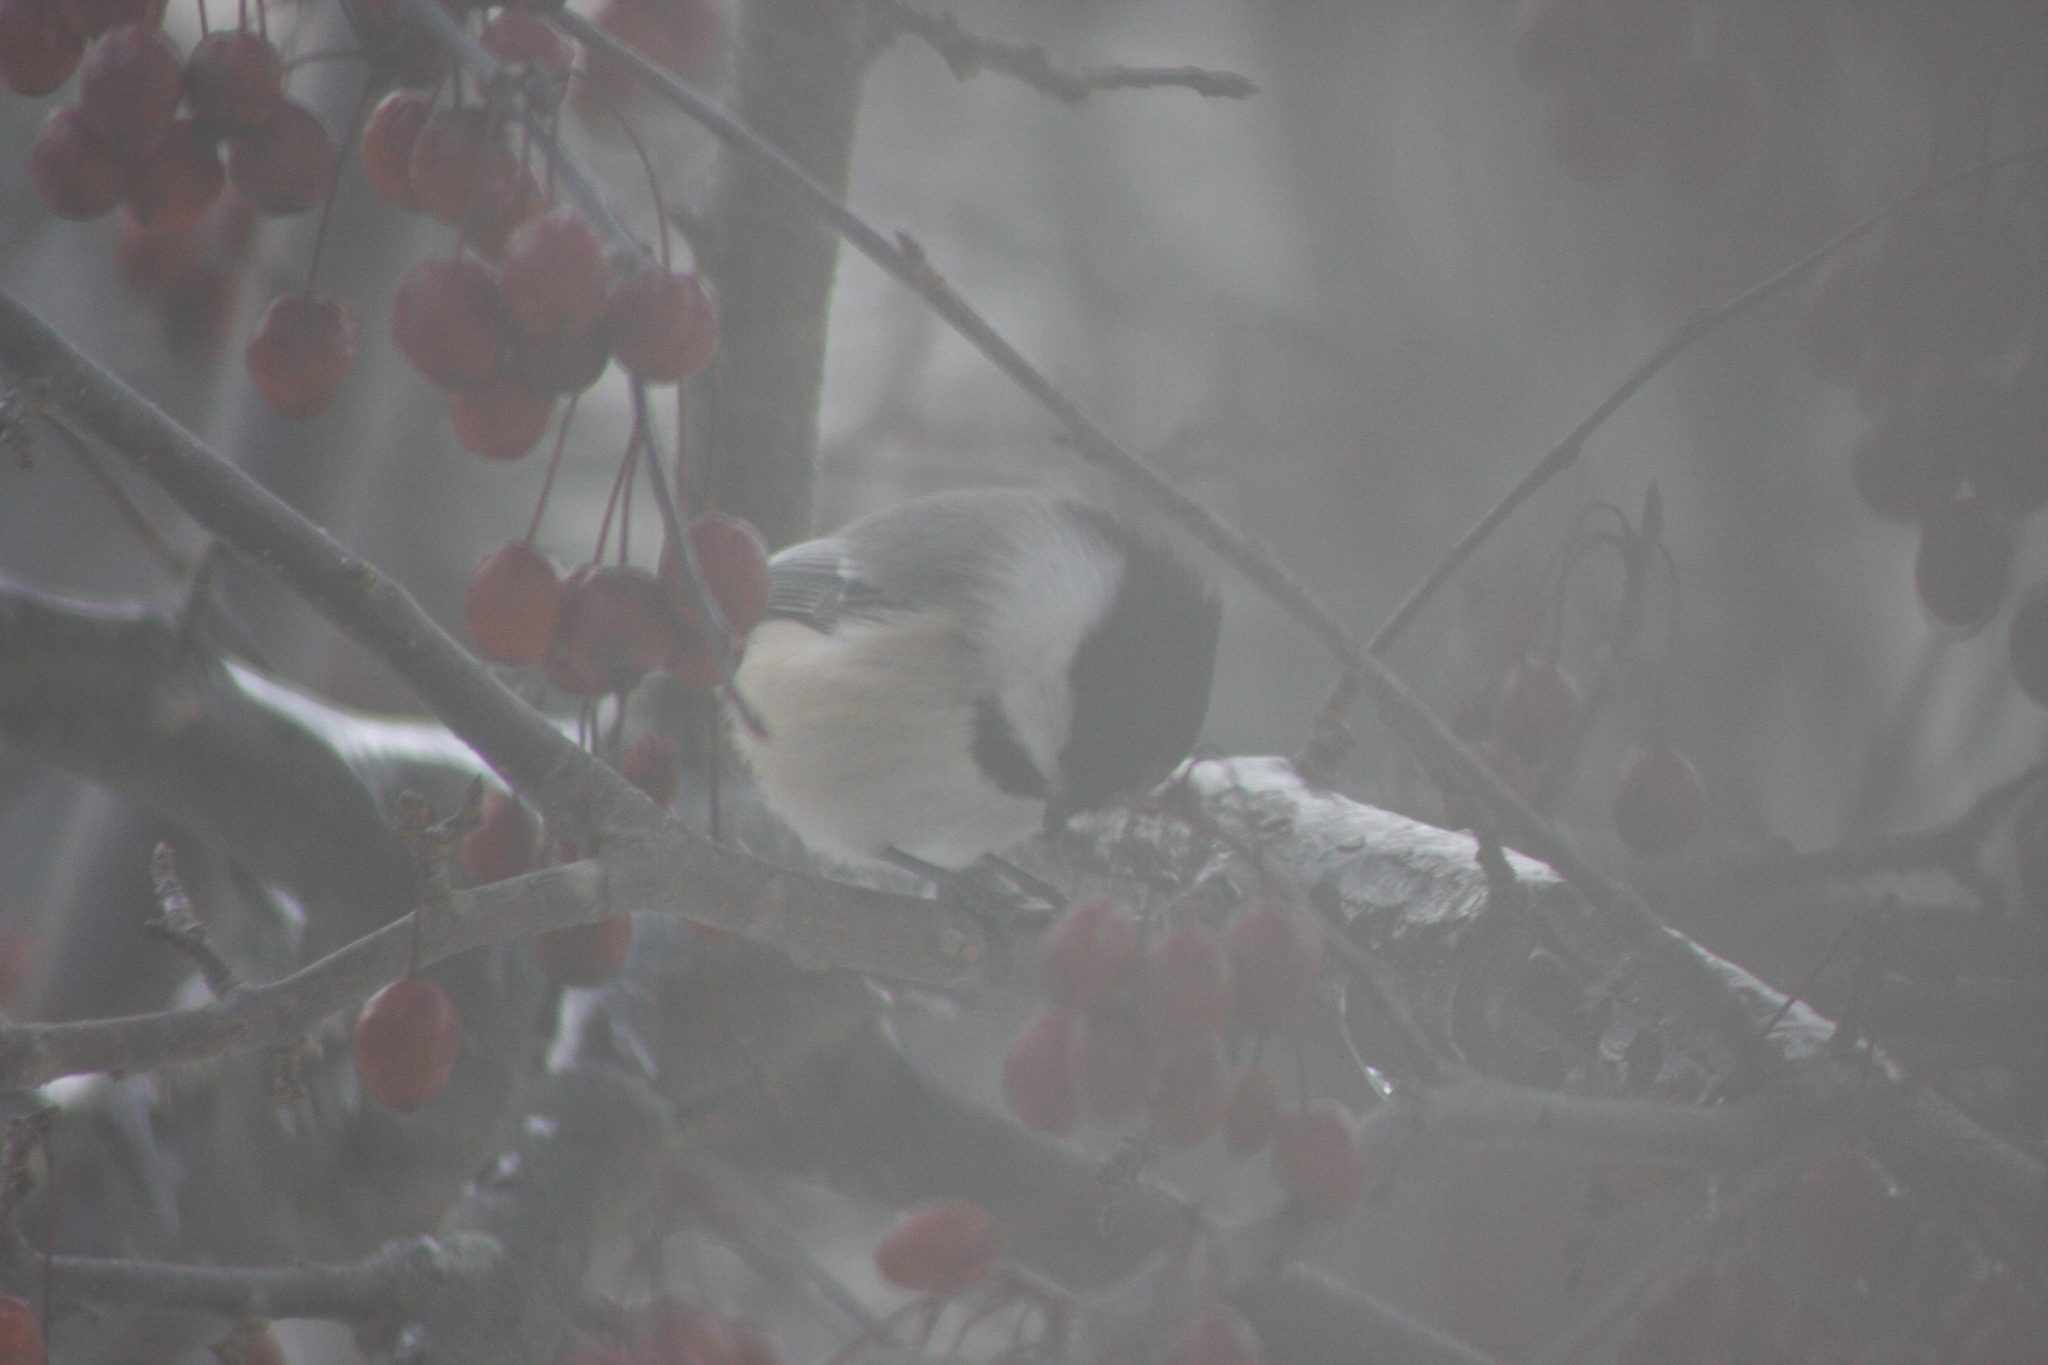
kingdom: Animalia
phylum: Chordata
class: Aves
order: Passeriformes
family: Paridae
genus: Poecile
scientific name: Poecile atricapillus
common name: Black-capped chickadee
